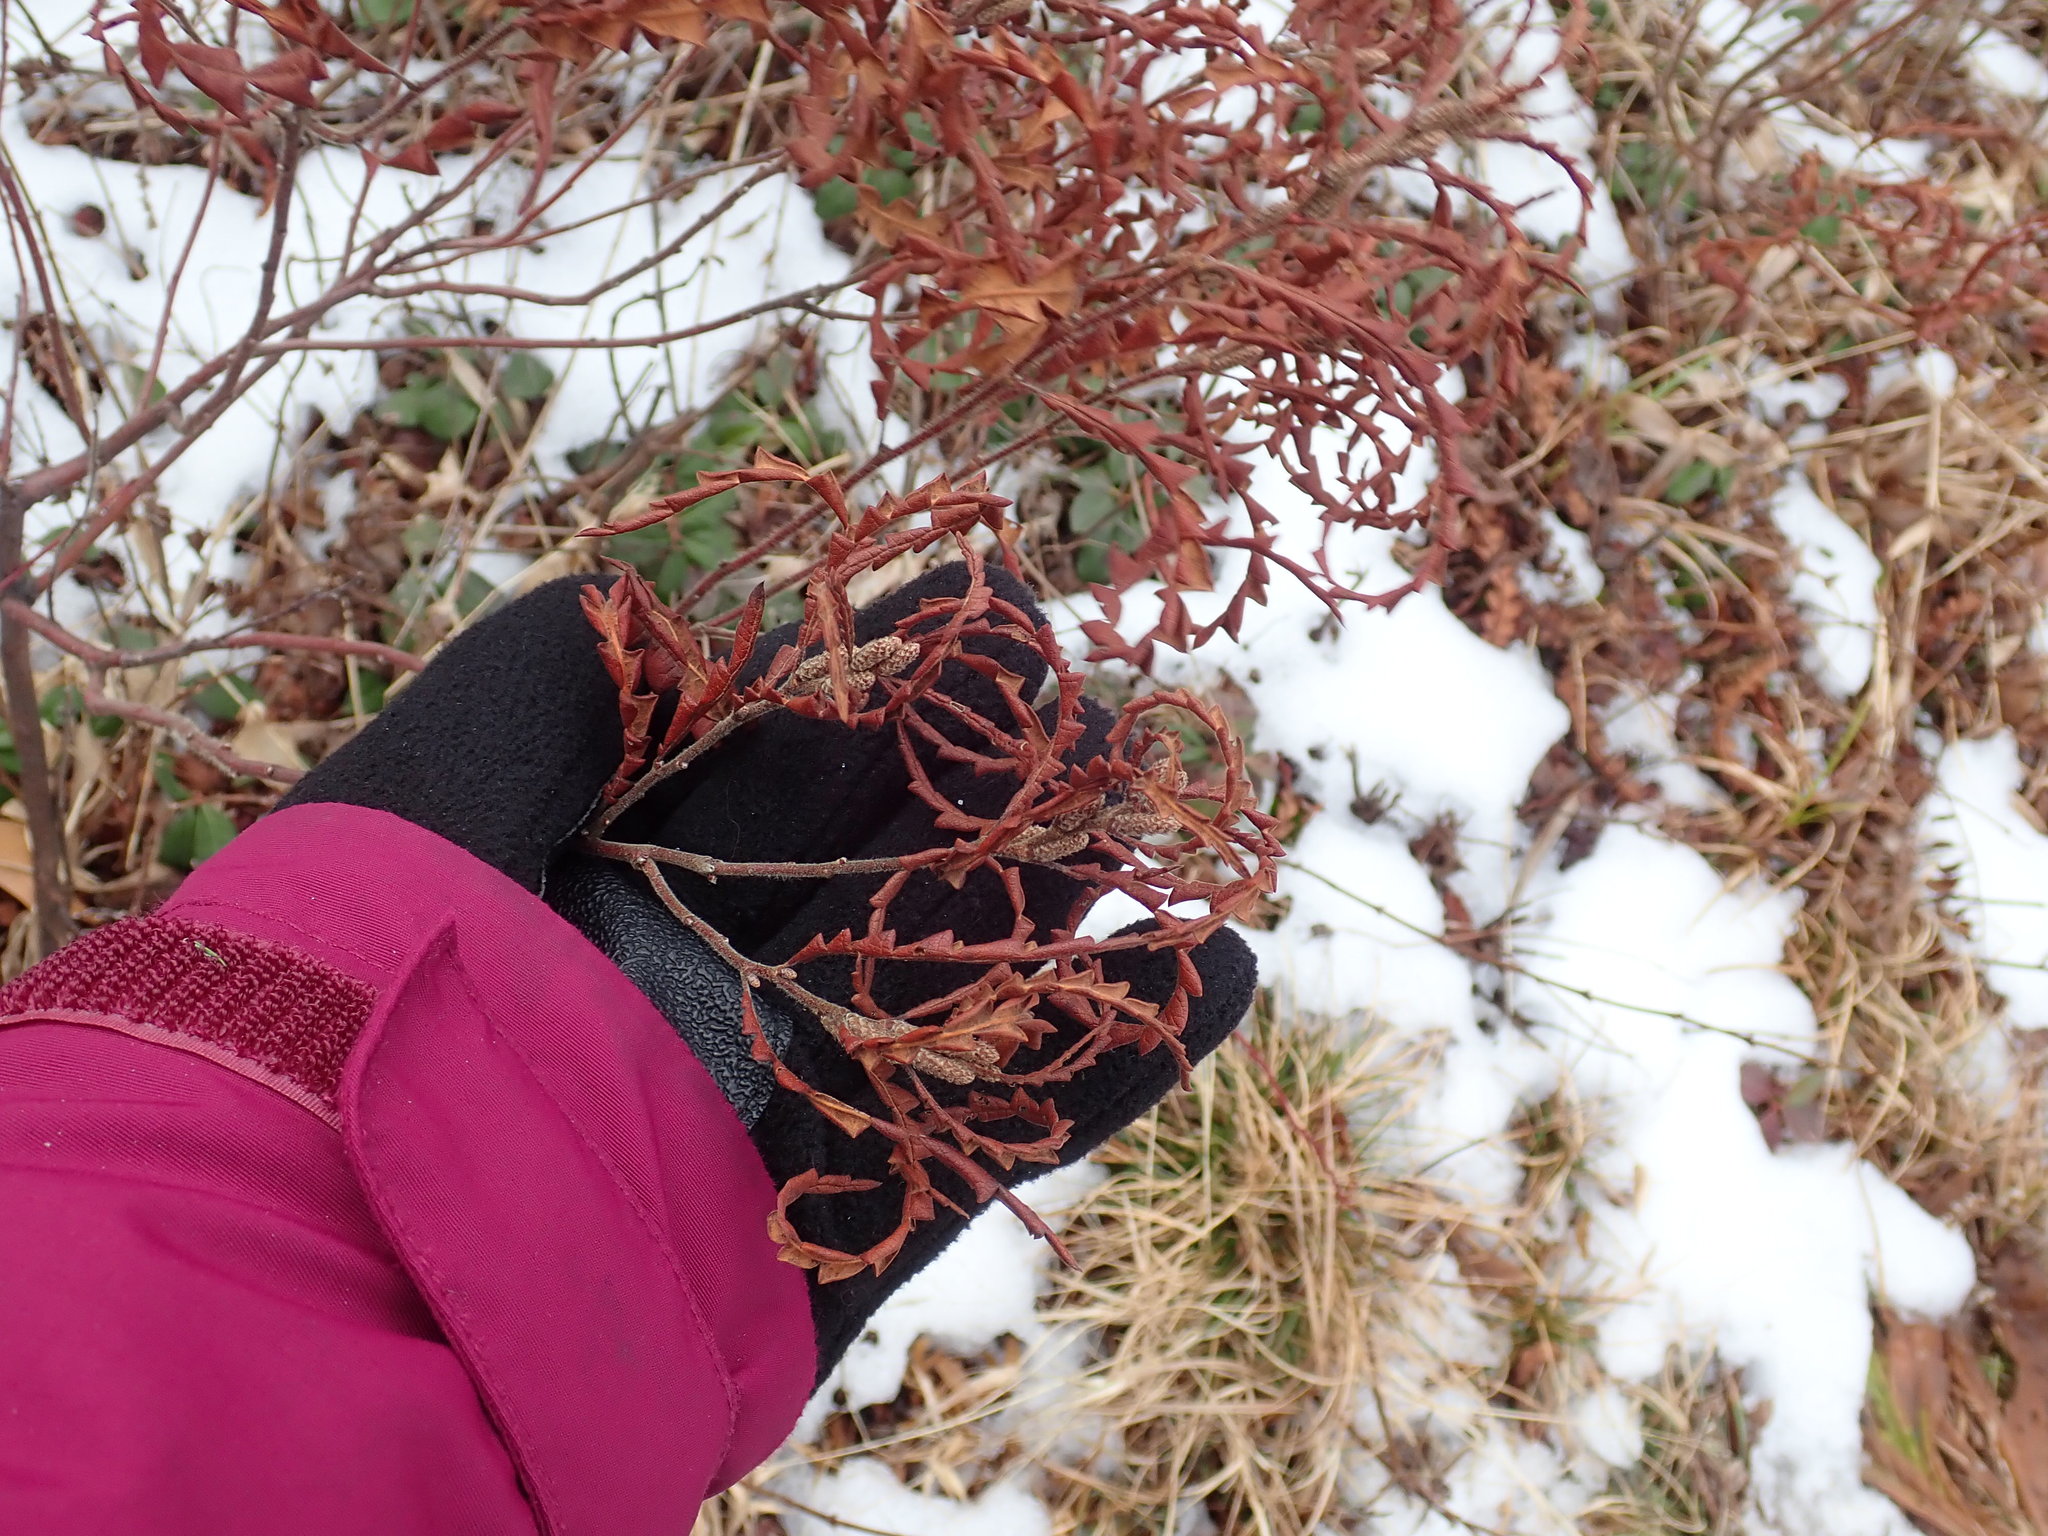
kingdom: Plantae
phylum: Tracheophyta
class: Magnoliopsida
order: Fagales
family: Myricaceae
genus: Comptonia
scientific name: Comptonia peregrina
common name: Sweet-fern
